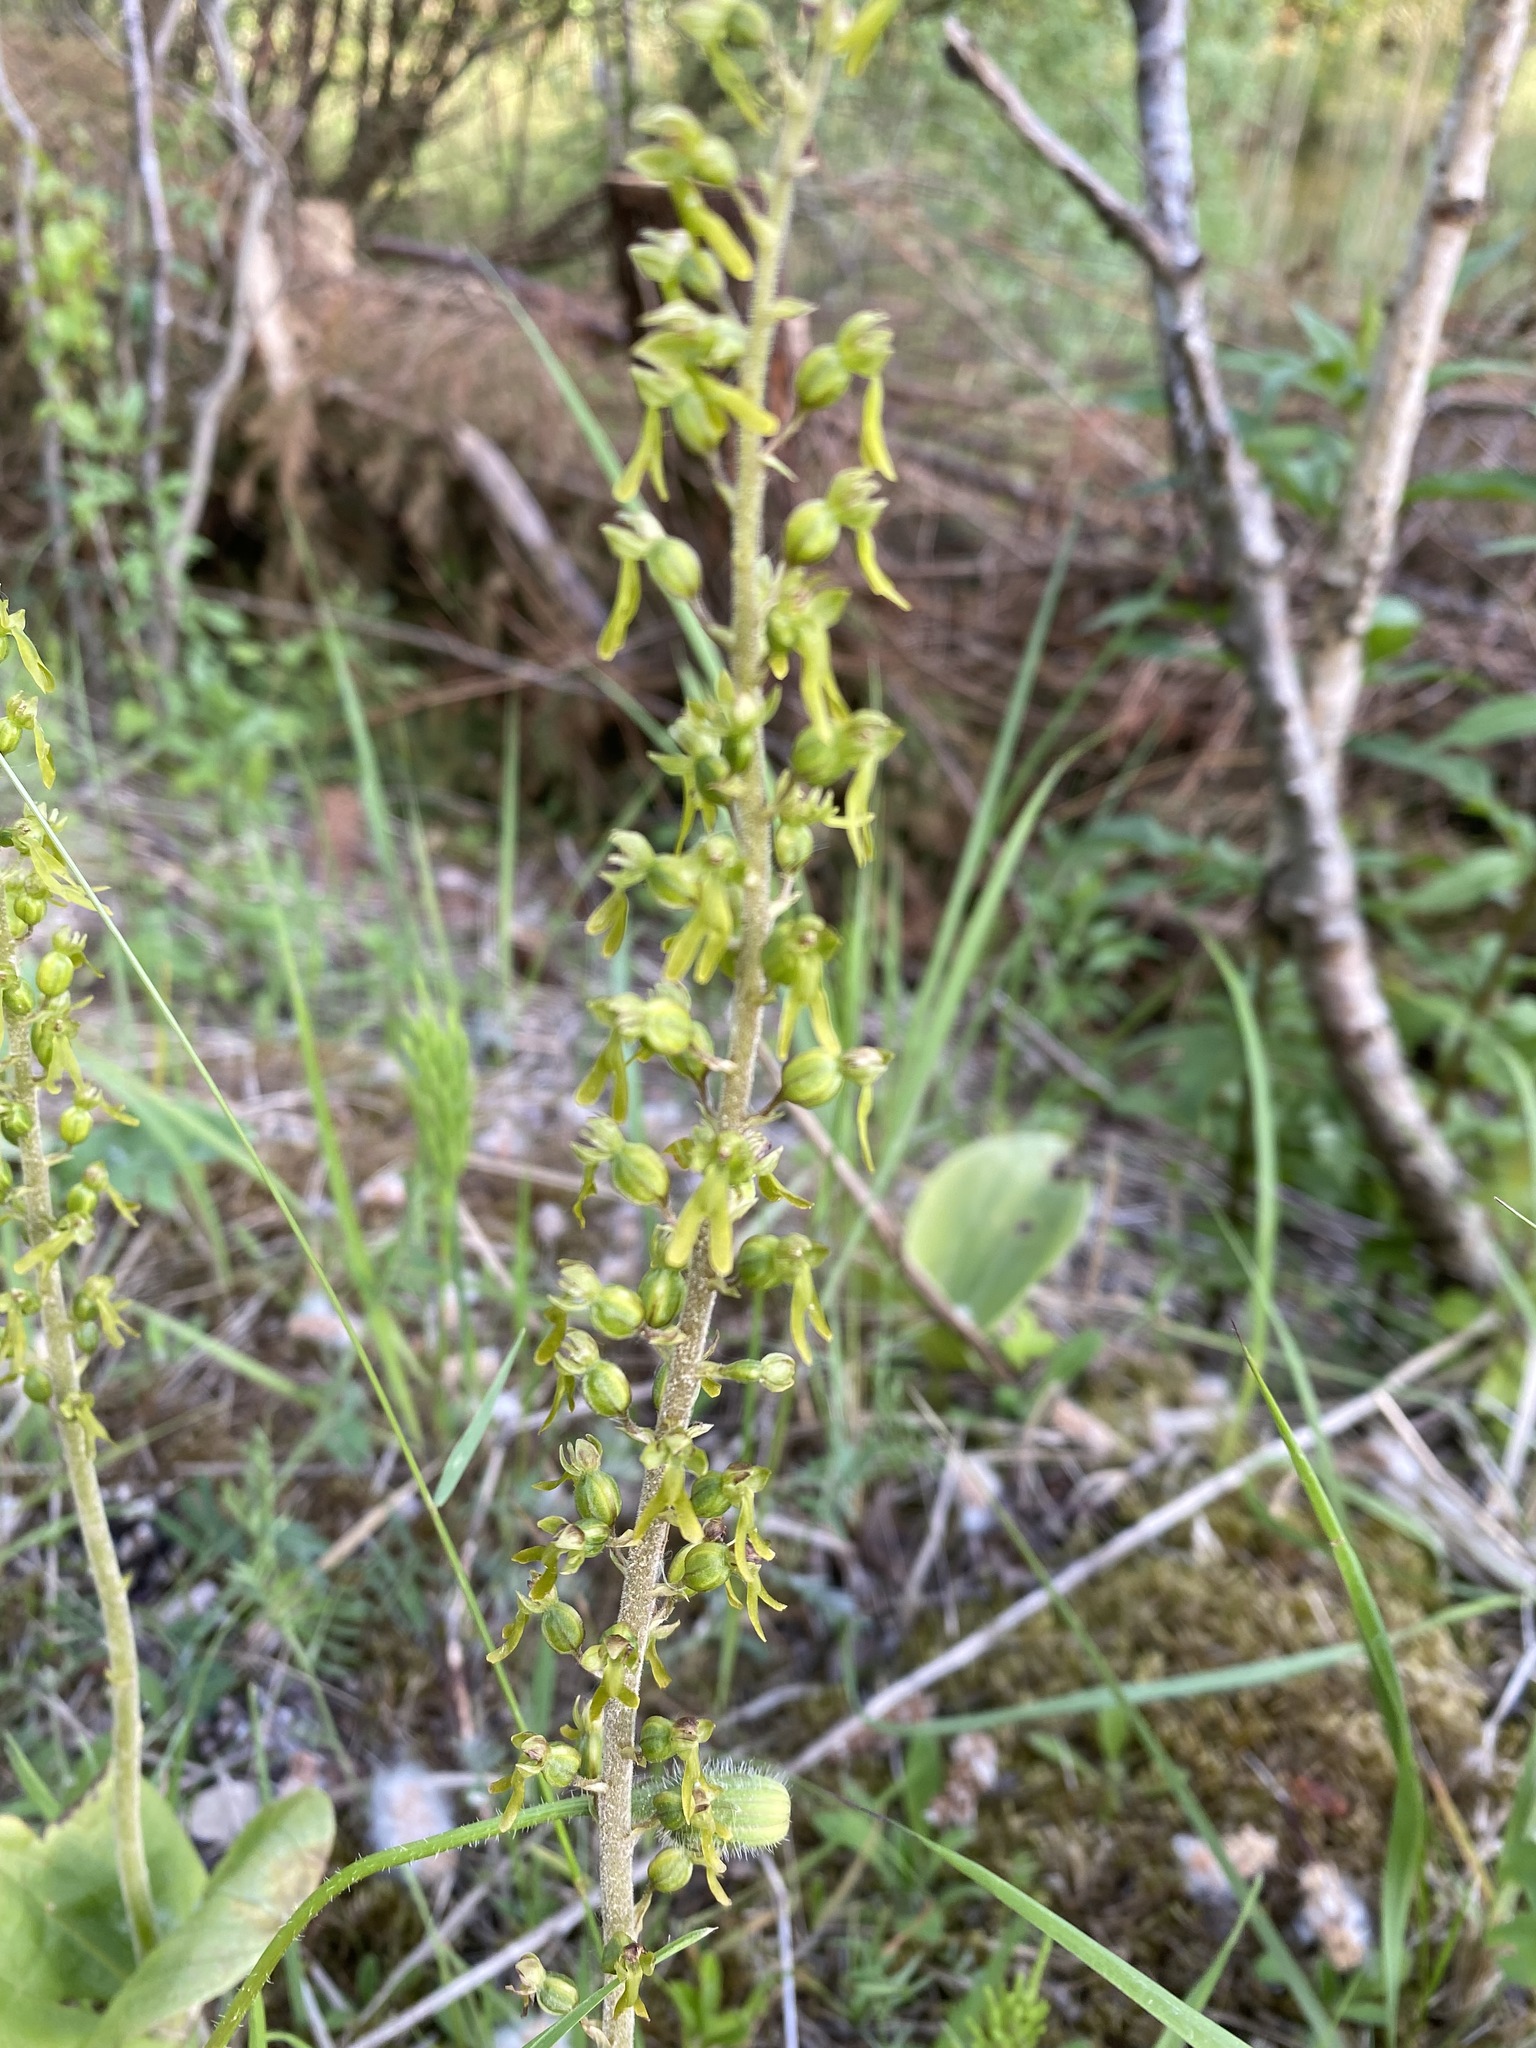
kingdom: Plantae
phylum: Tracheophyta
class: Liliopsida
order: Asparagales
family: Orchidaceae
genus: Neottia
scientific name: Neottia ovata
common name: Common twayblade
